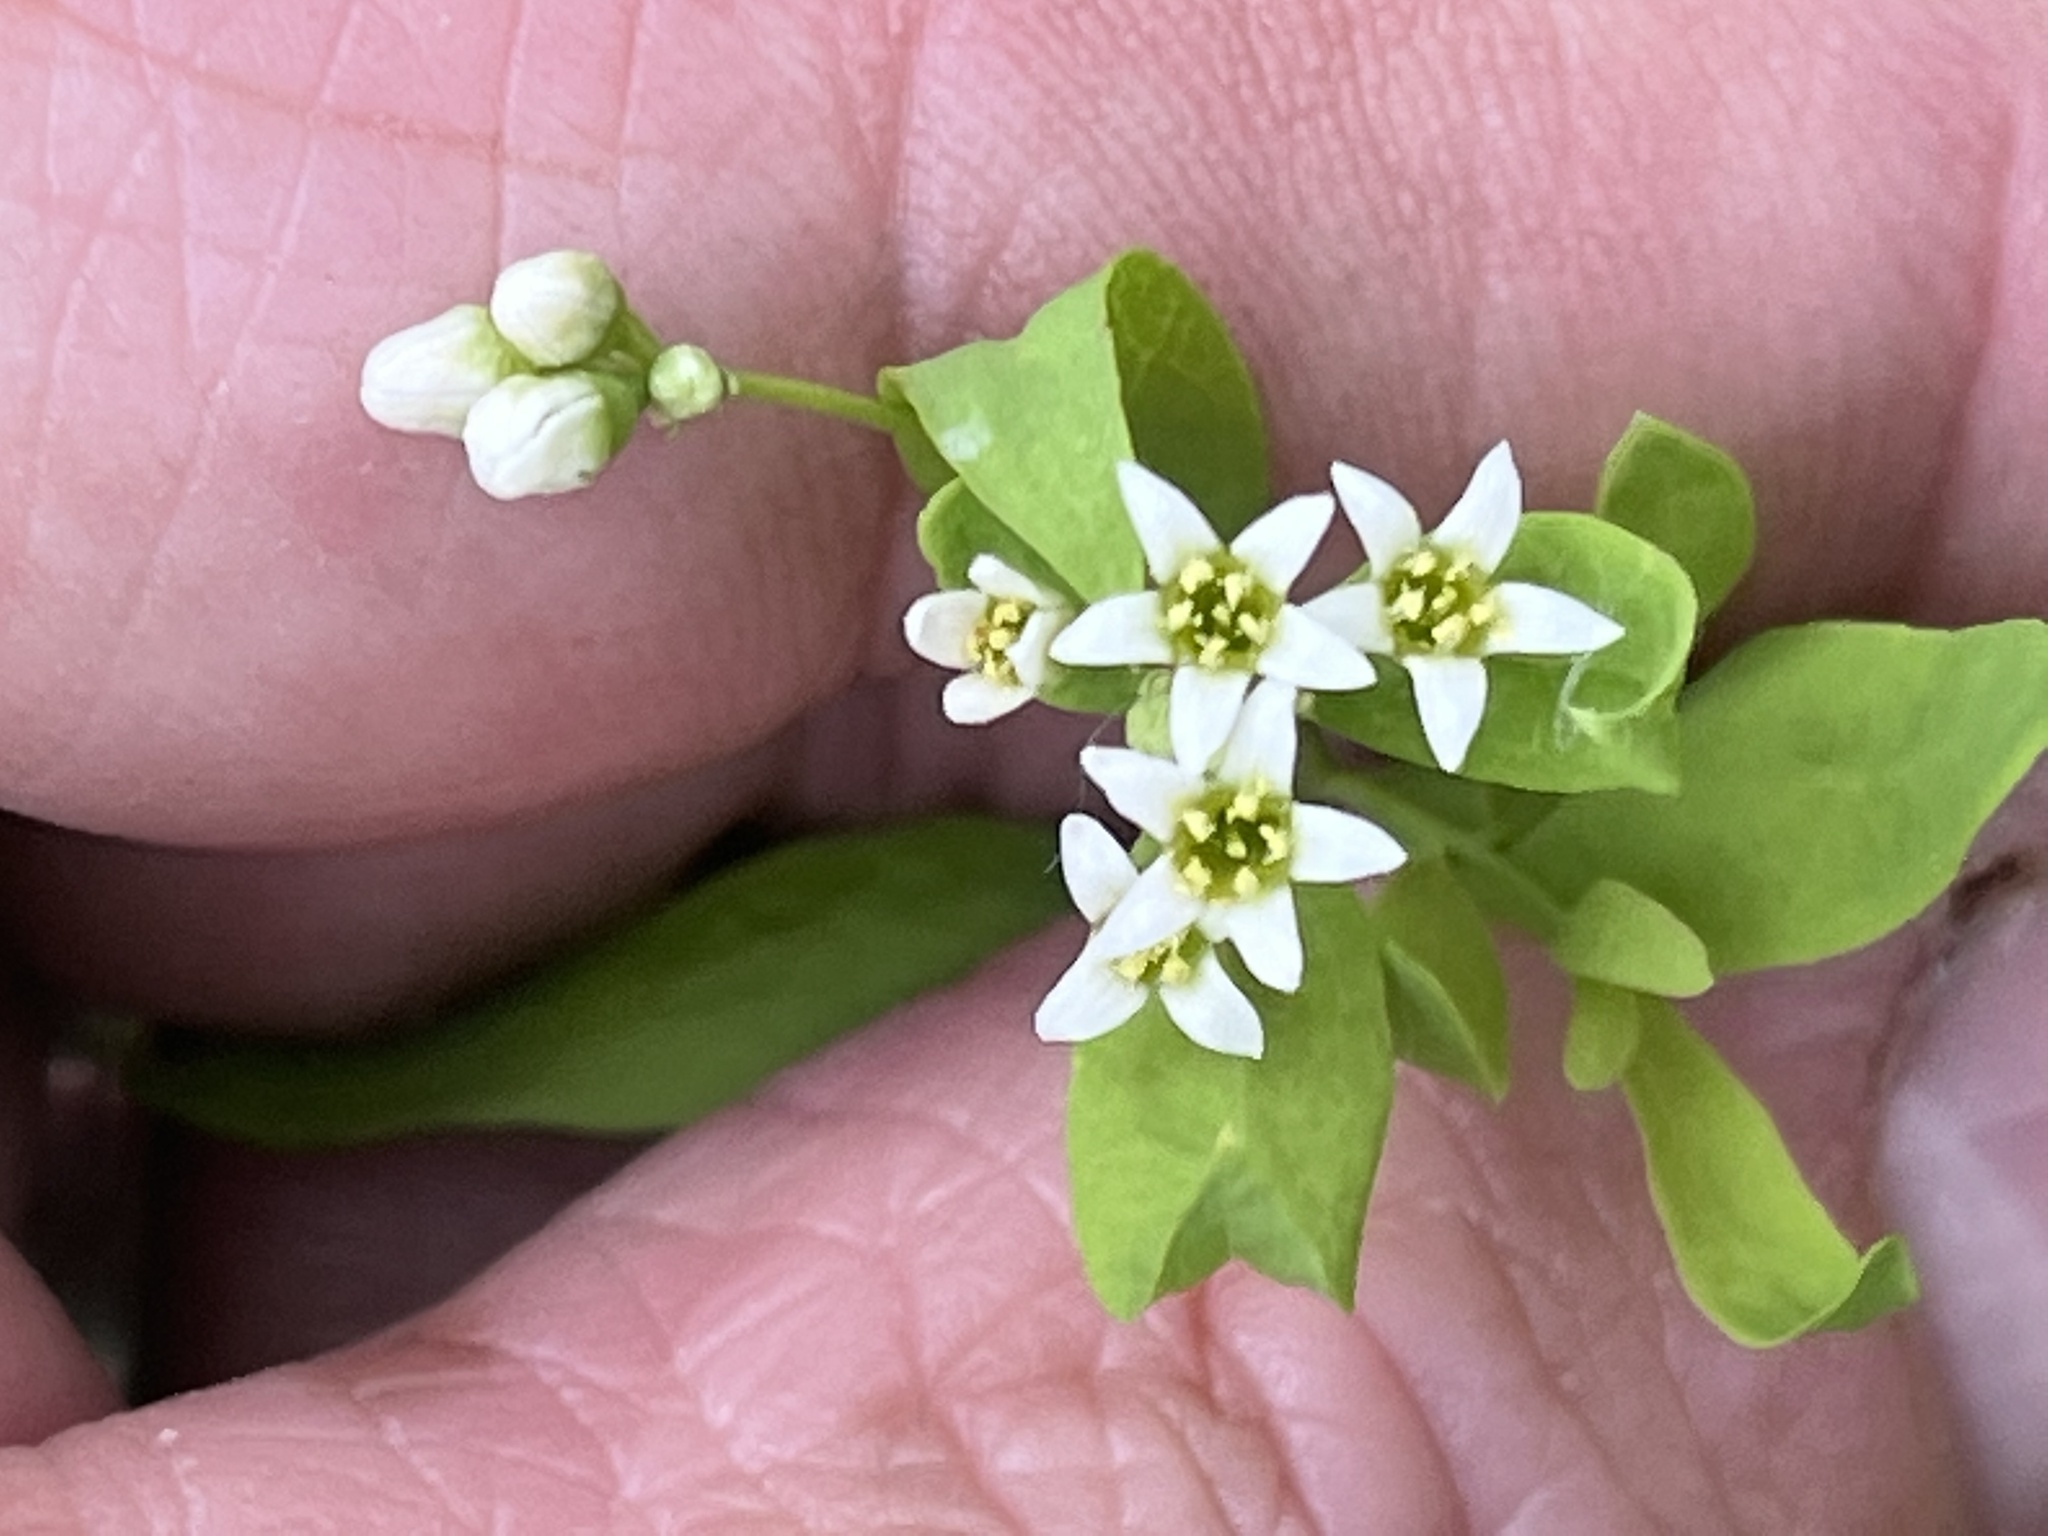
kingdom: Plantae
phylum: Tracheophyta
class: Magnoliopsida
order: Santalales
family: Comandraceae
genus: Comandra
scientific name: Comandra umbellata
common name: Bastard toadflax
